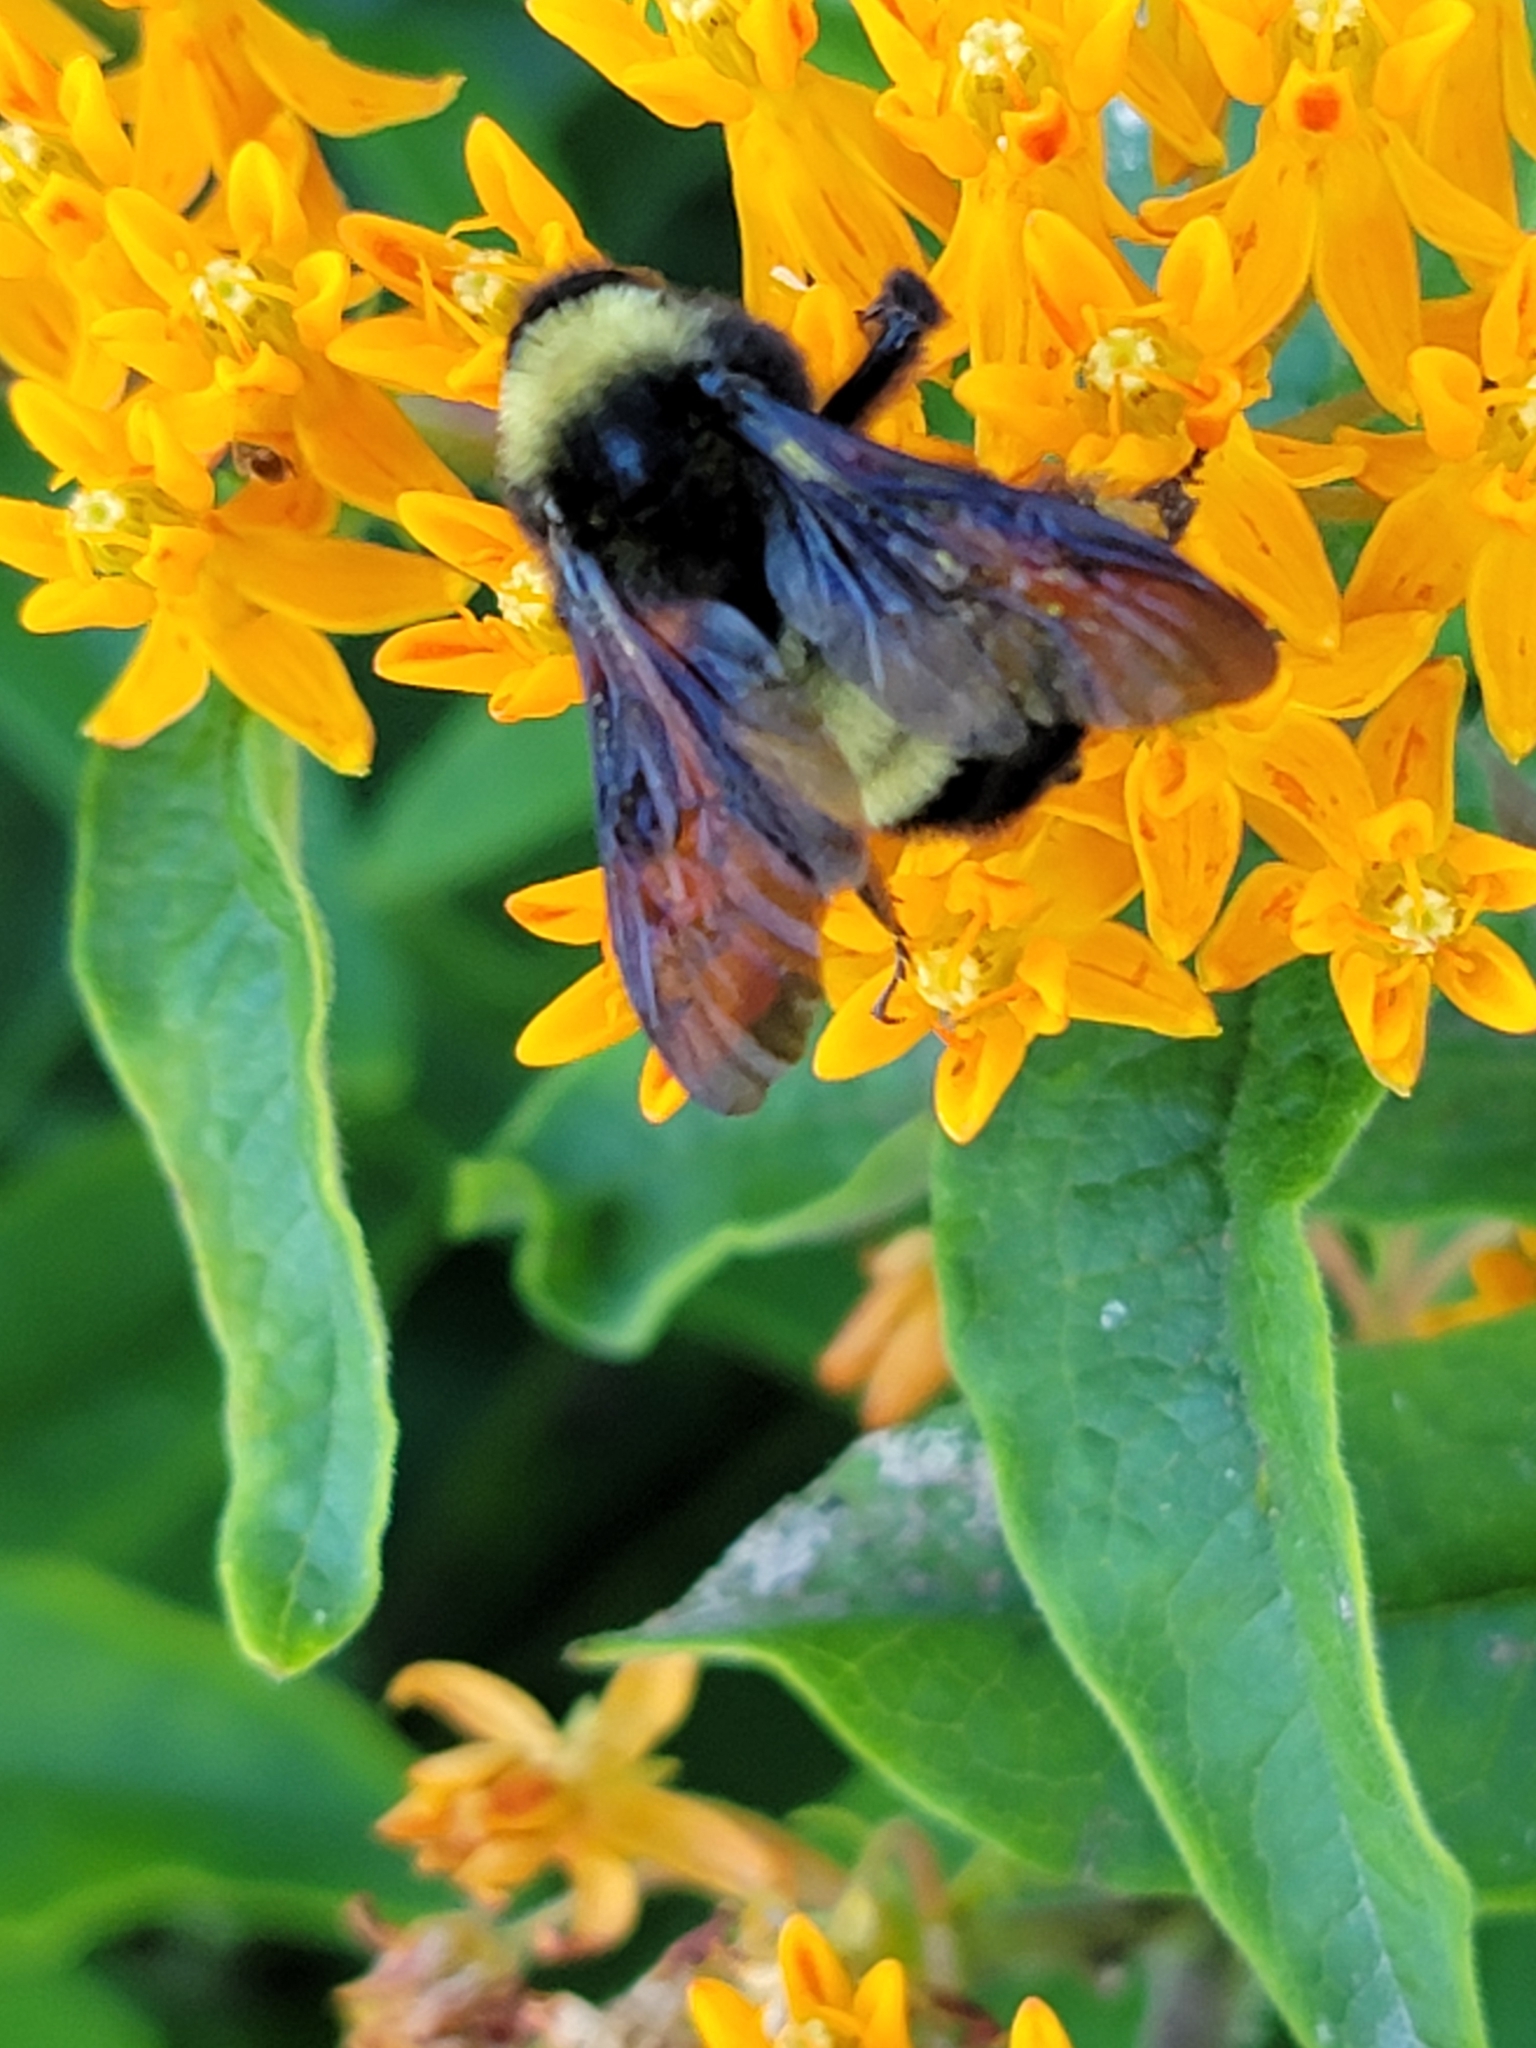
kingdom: Animalia
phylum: Arthropoda
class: Insecta
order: Hymenoptera
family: Apidae
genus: Bombus
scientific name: Bombus pensylvanicus
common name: Bumble bee
